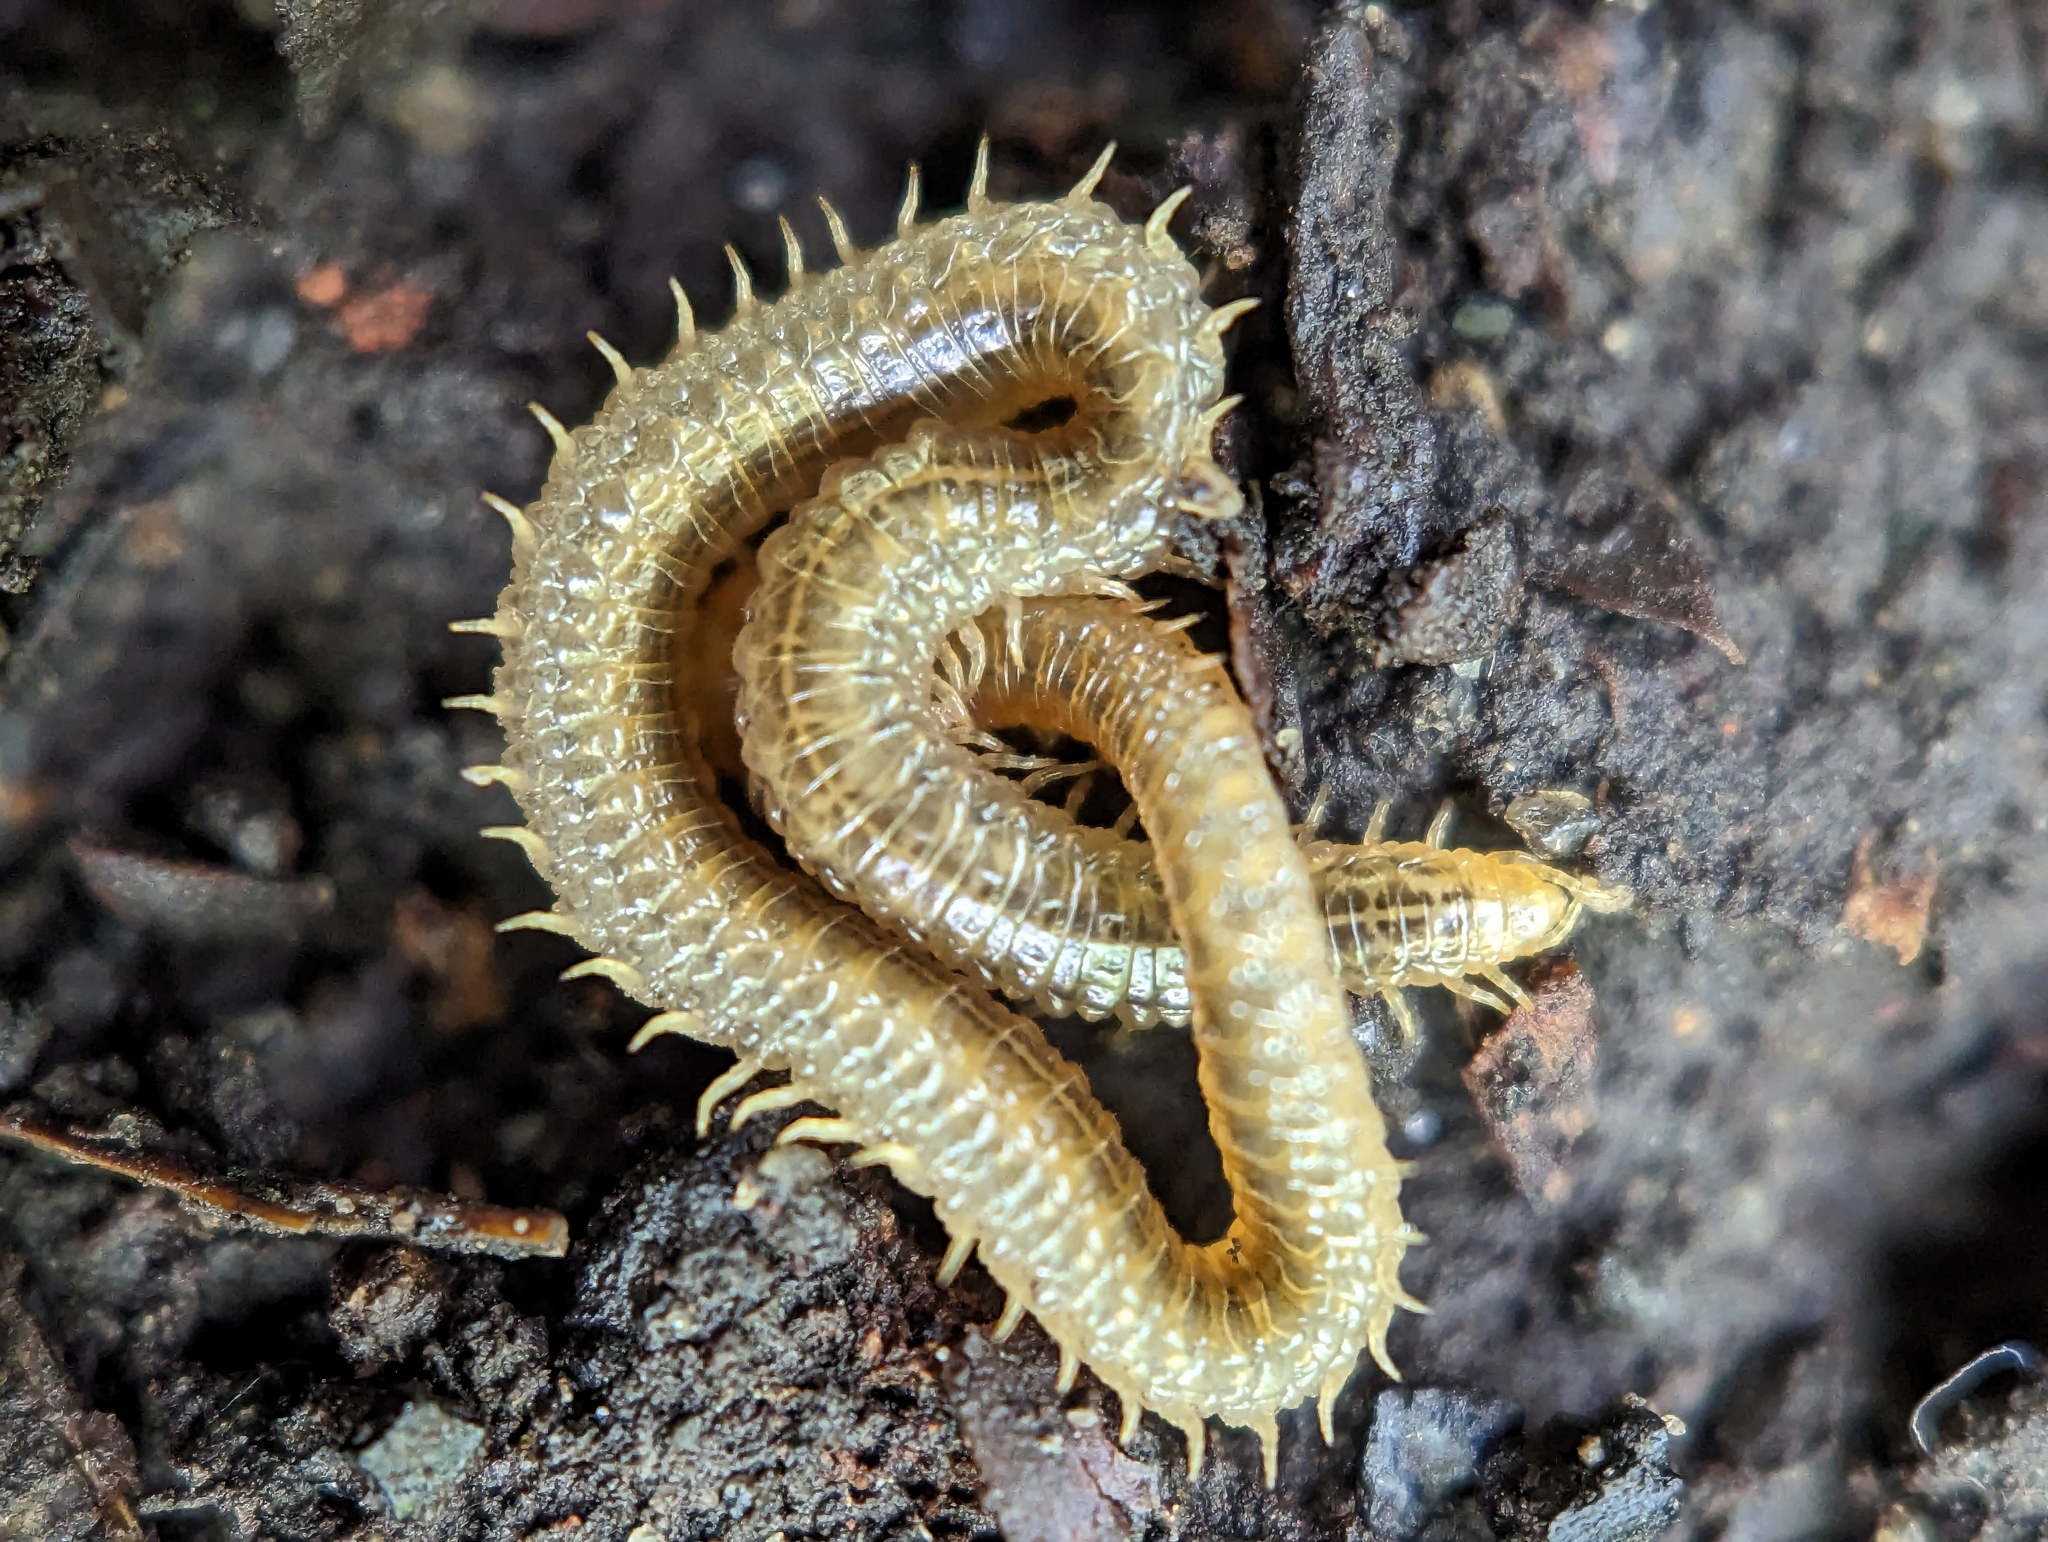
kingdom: Animalia
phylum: Arthropoda
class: Chilopoda
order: Geophilomorpha
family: Dignathodontidae
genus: Henia
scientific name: Henia vesuviana
